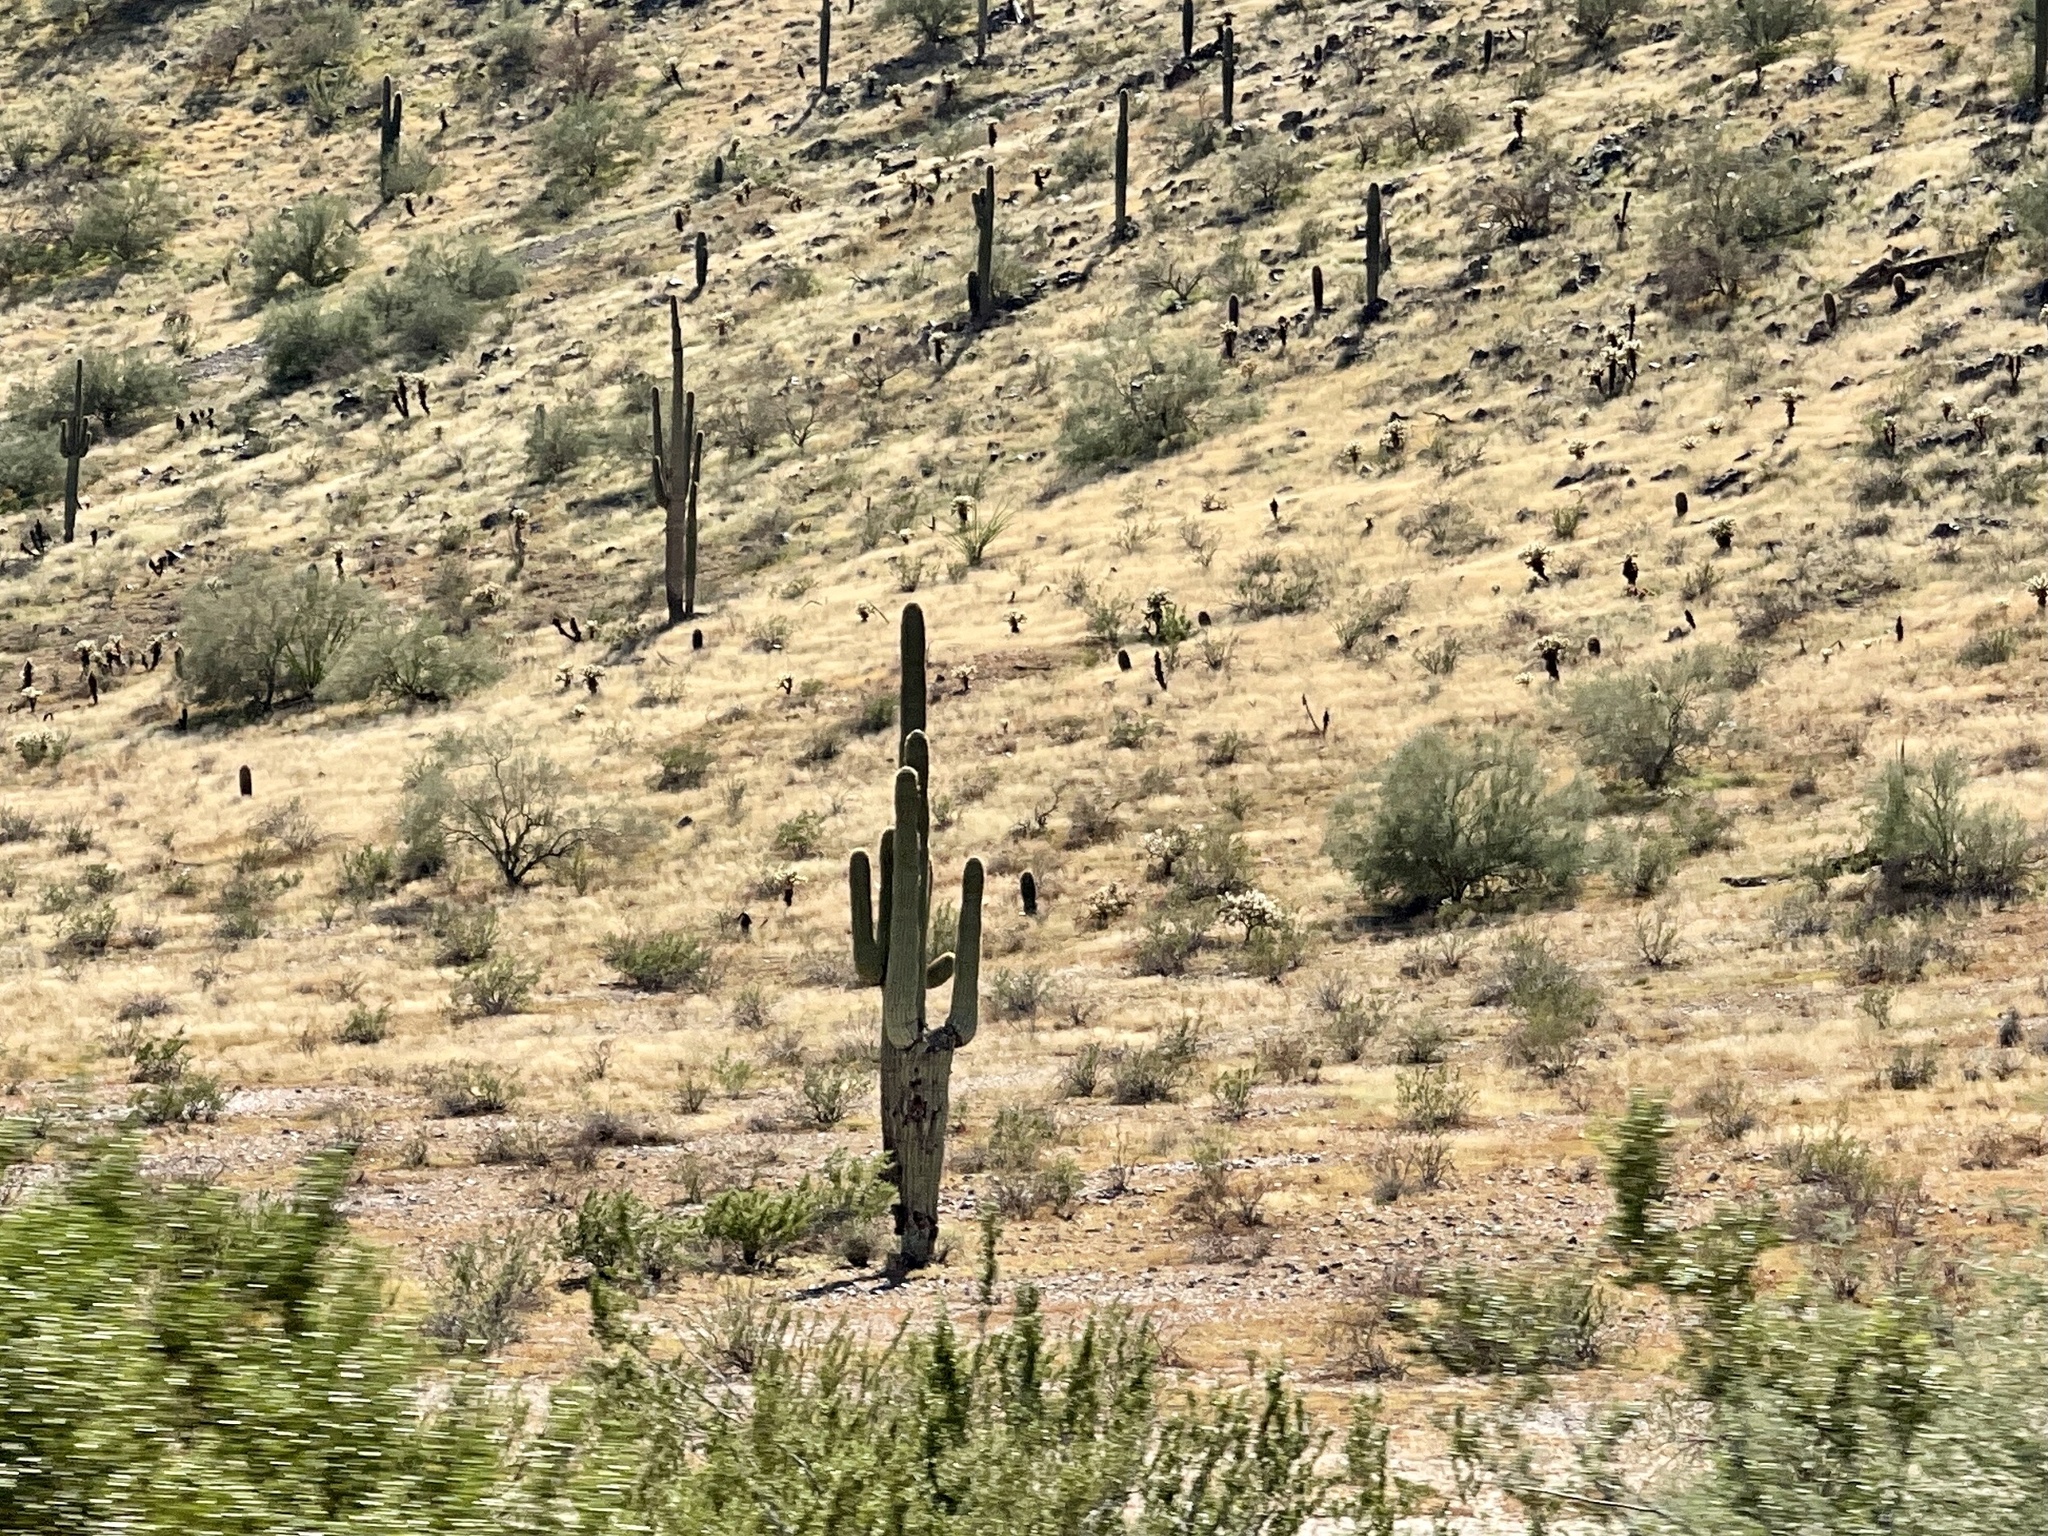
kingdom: Plantae
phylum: Tracheophyta
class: Magnoliopsida
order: Caryophyllales
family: Cactaceae
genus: Carnegiea
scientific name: Carnegiea gigantea
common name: Saguaro
